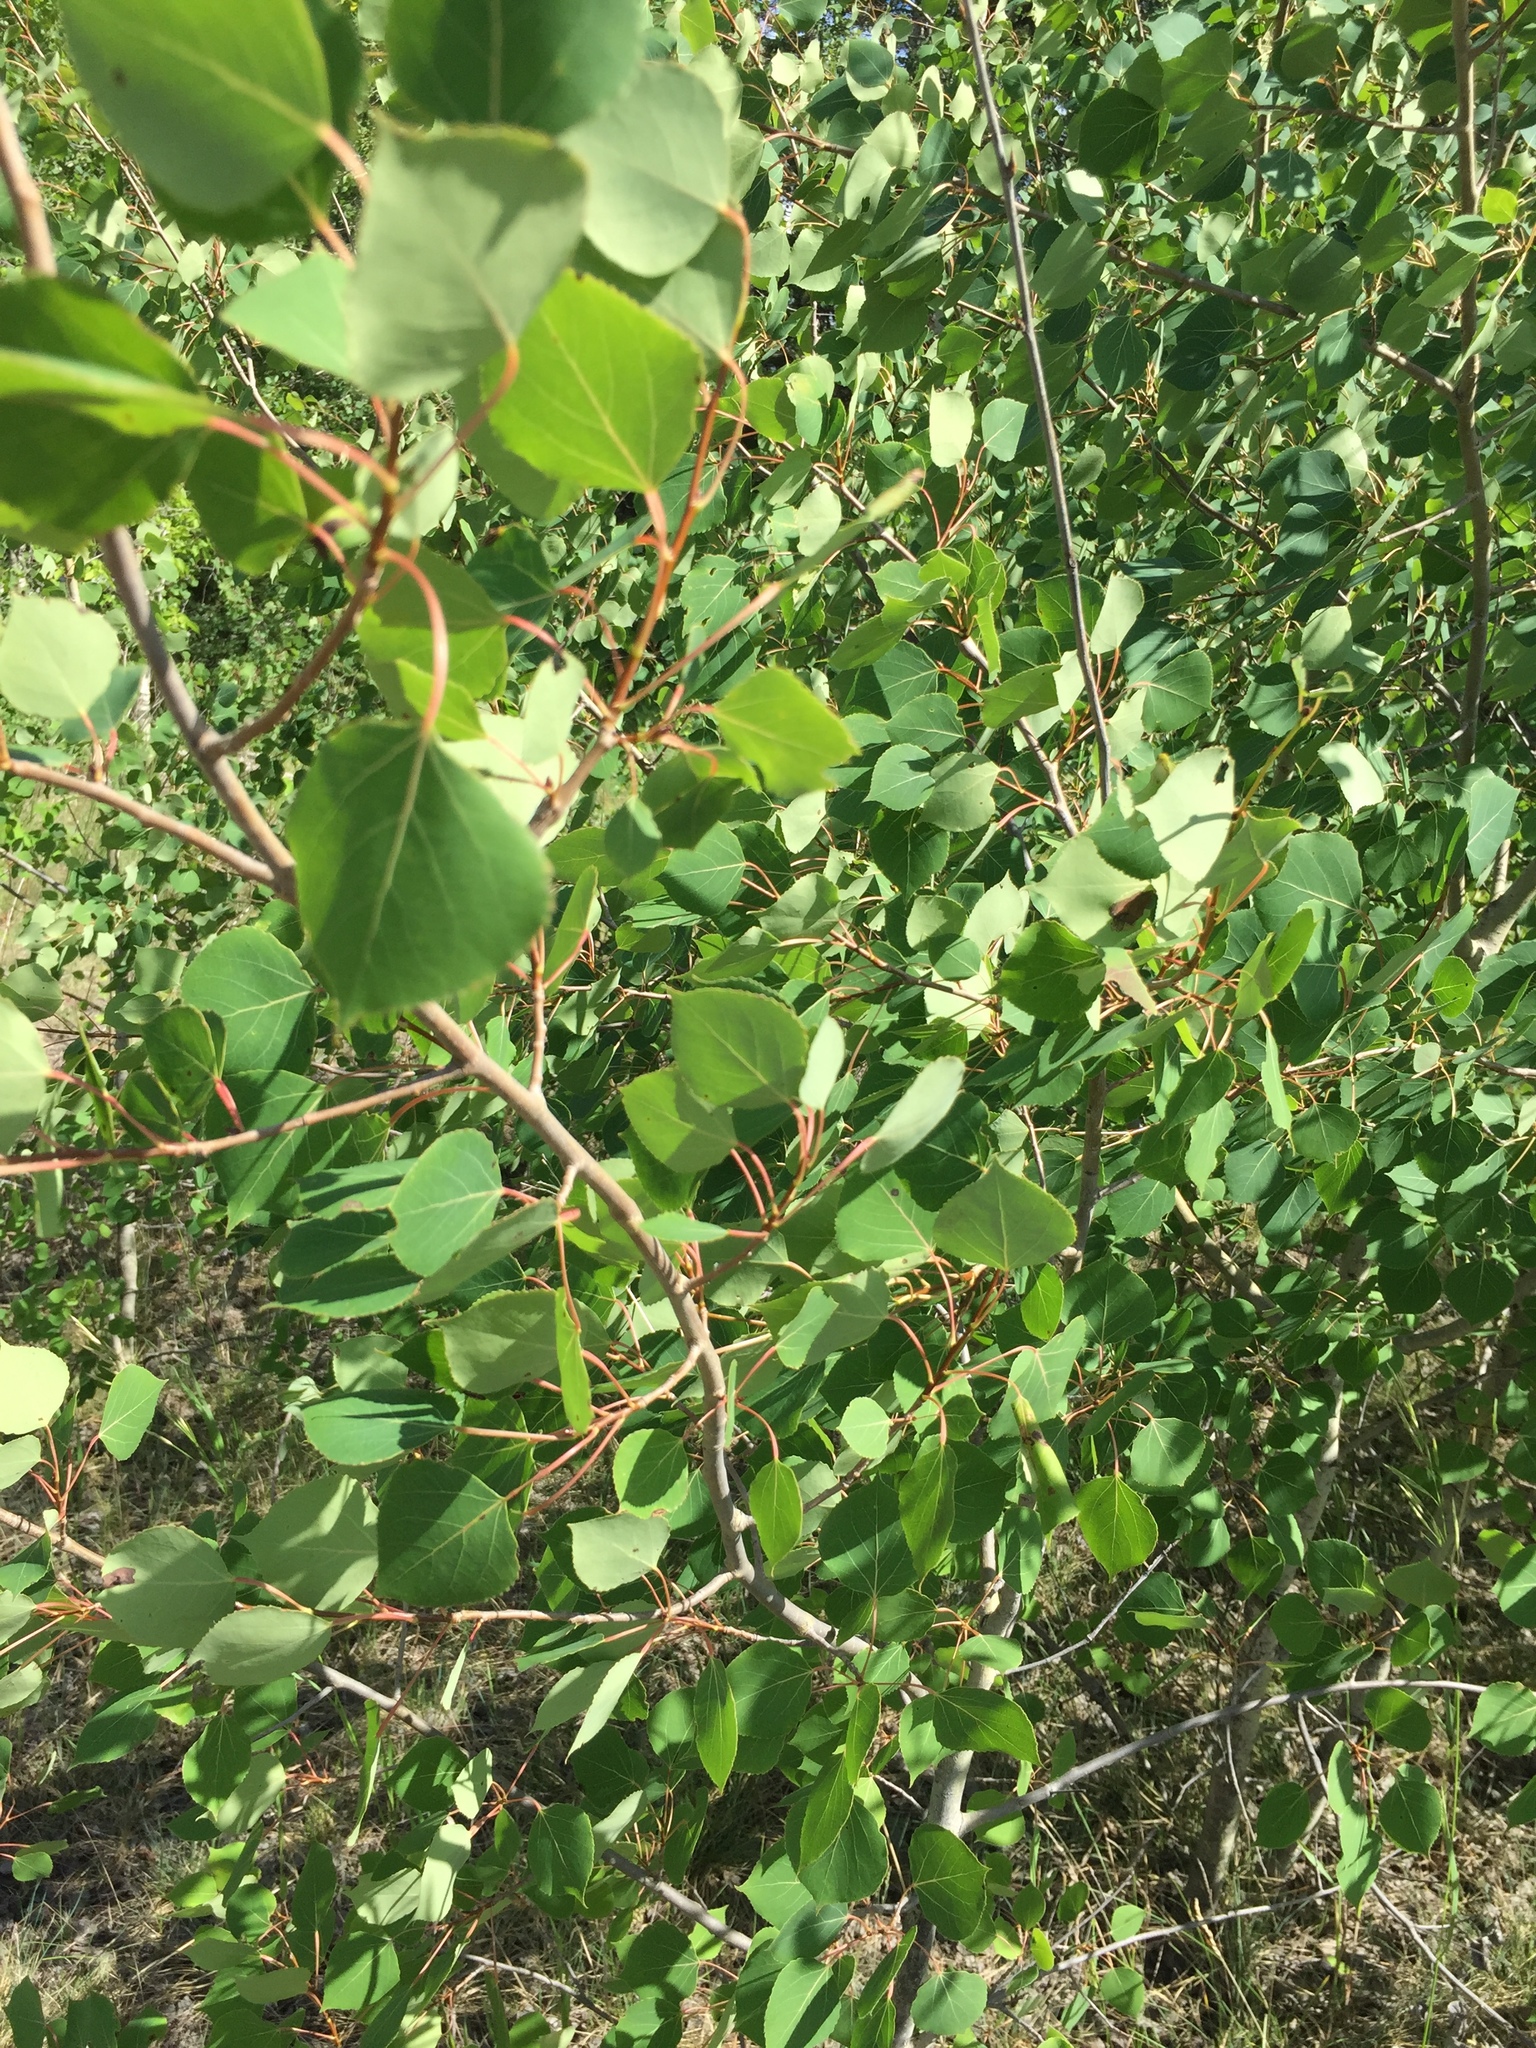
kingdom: Plantae
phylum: Tracheophyta
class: Magnoliopsida
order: Malpighiales
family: Salicaceae
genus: Populus
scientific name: Populus tremuloides
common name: Quaking aspen
